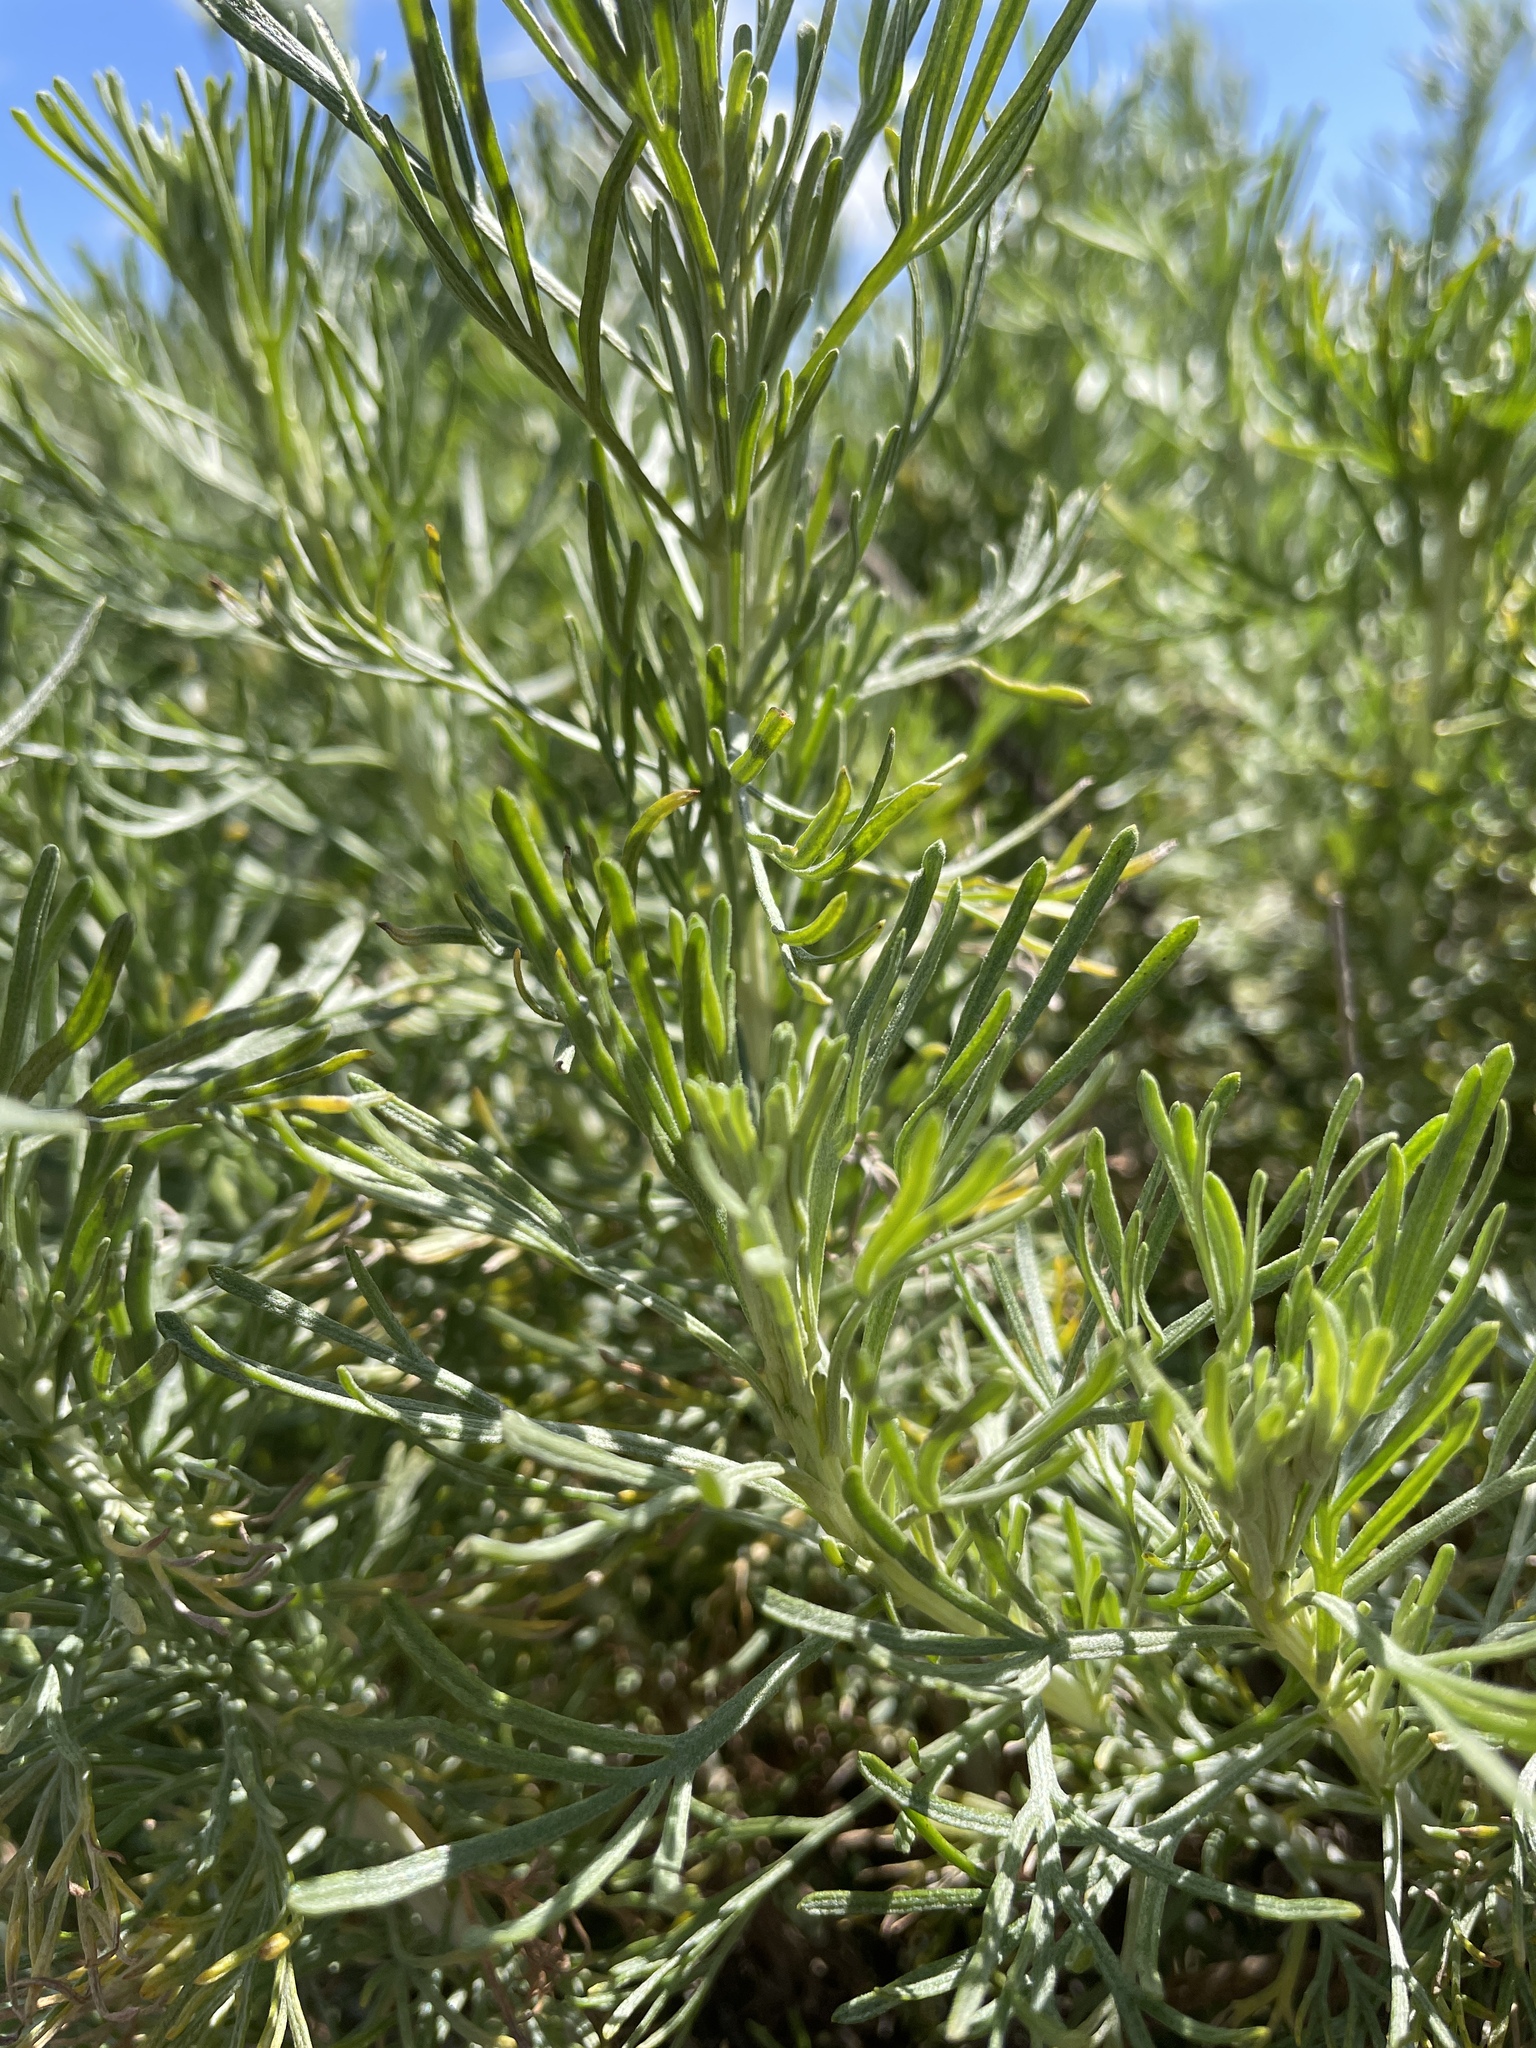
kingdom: Plantae
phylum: Tracheophyta
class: Magnoliopsida
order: Asterales
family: Asteraceae
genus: Artemisia
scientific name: Artemisia californica
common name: California sagebrush
